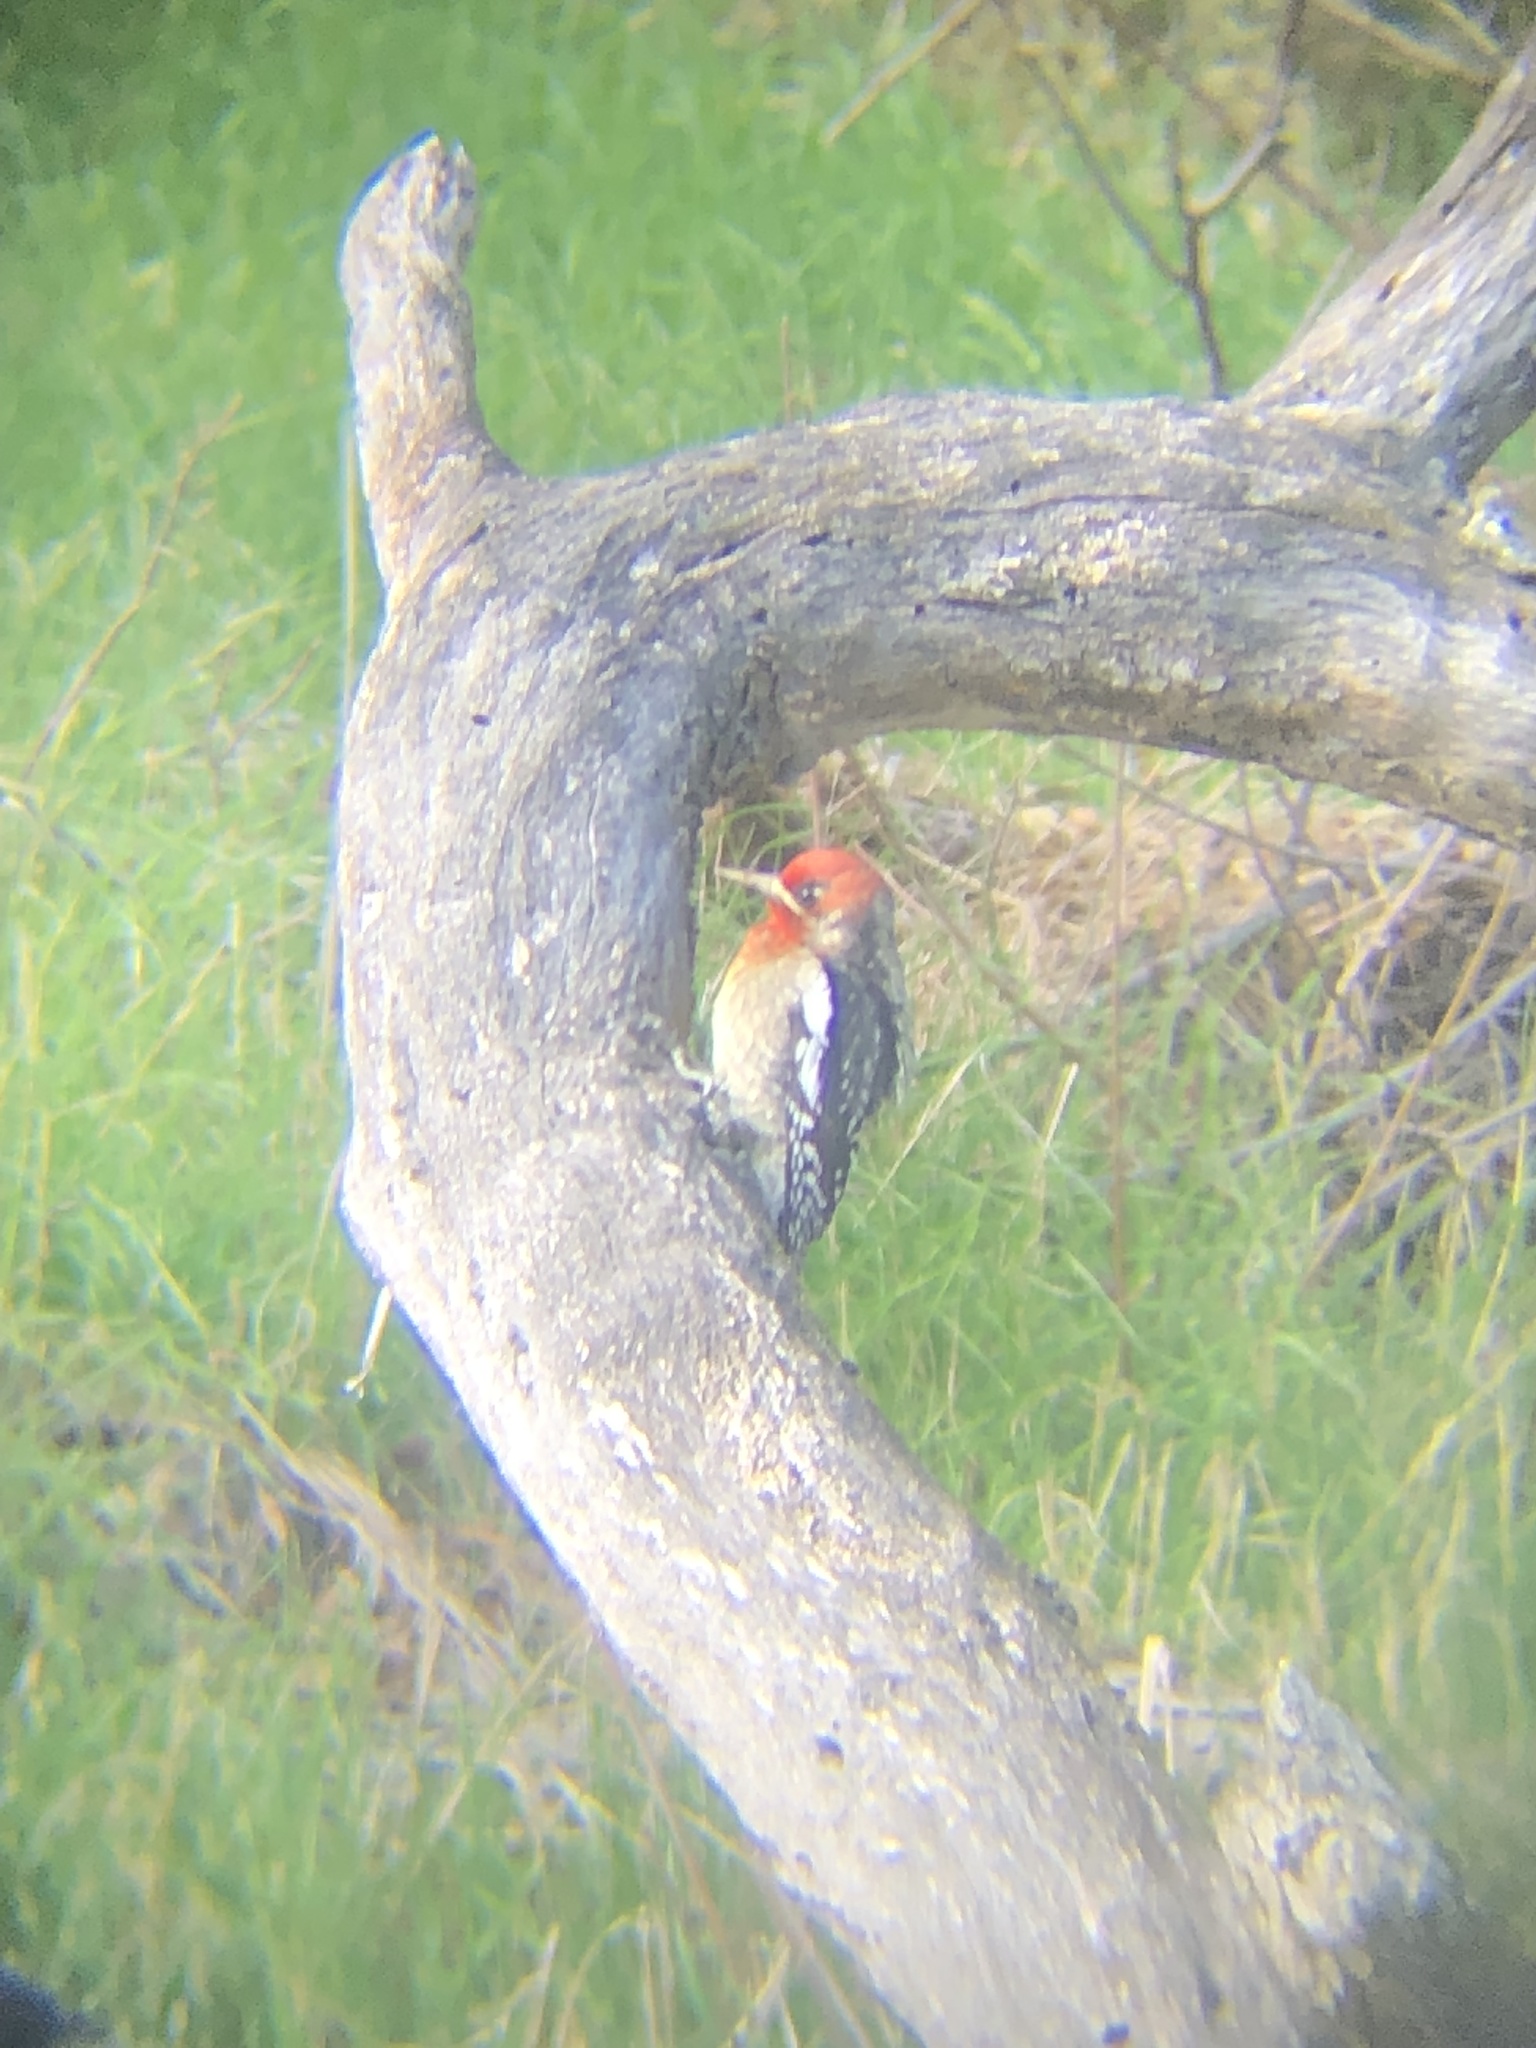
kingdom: Animalia
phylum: Chordata
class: Aves
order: Piciformes
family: Picidae
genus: Sphyrapicus
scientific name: Sphyrapicus ruber
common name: Red-breasted sapsucker
